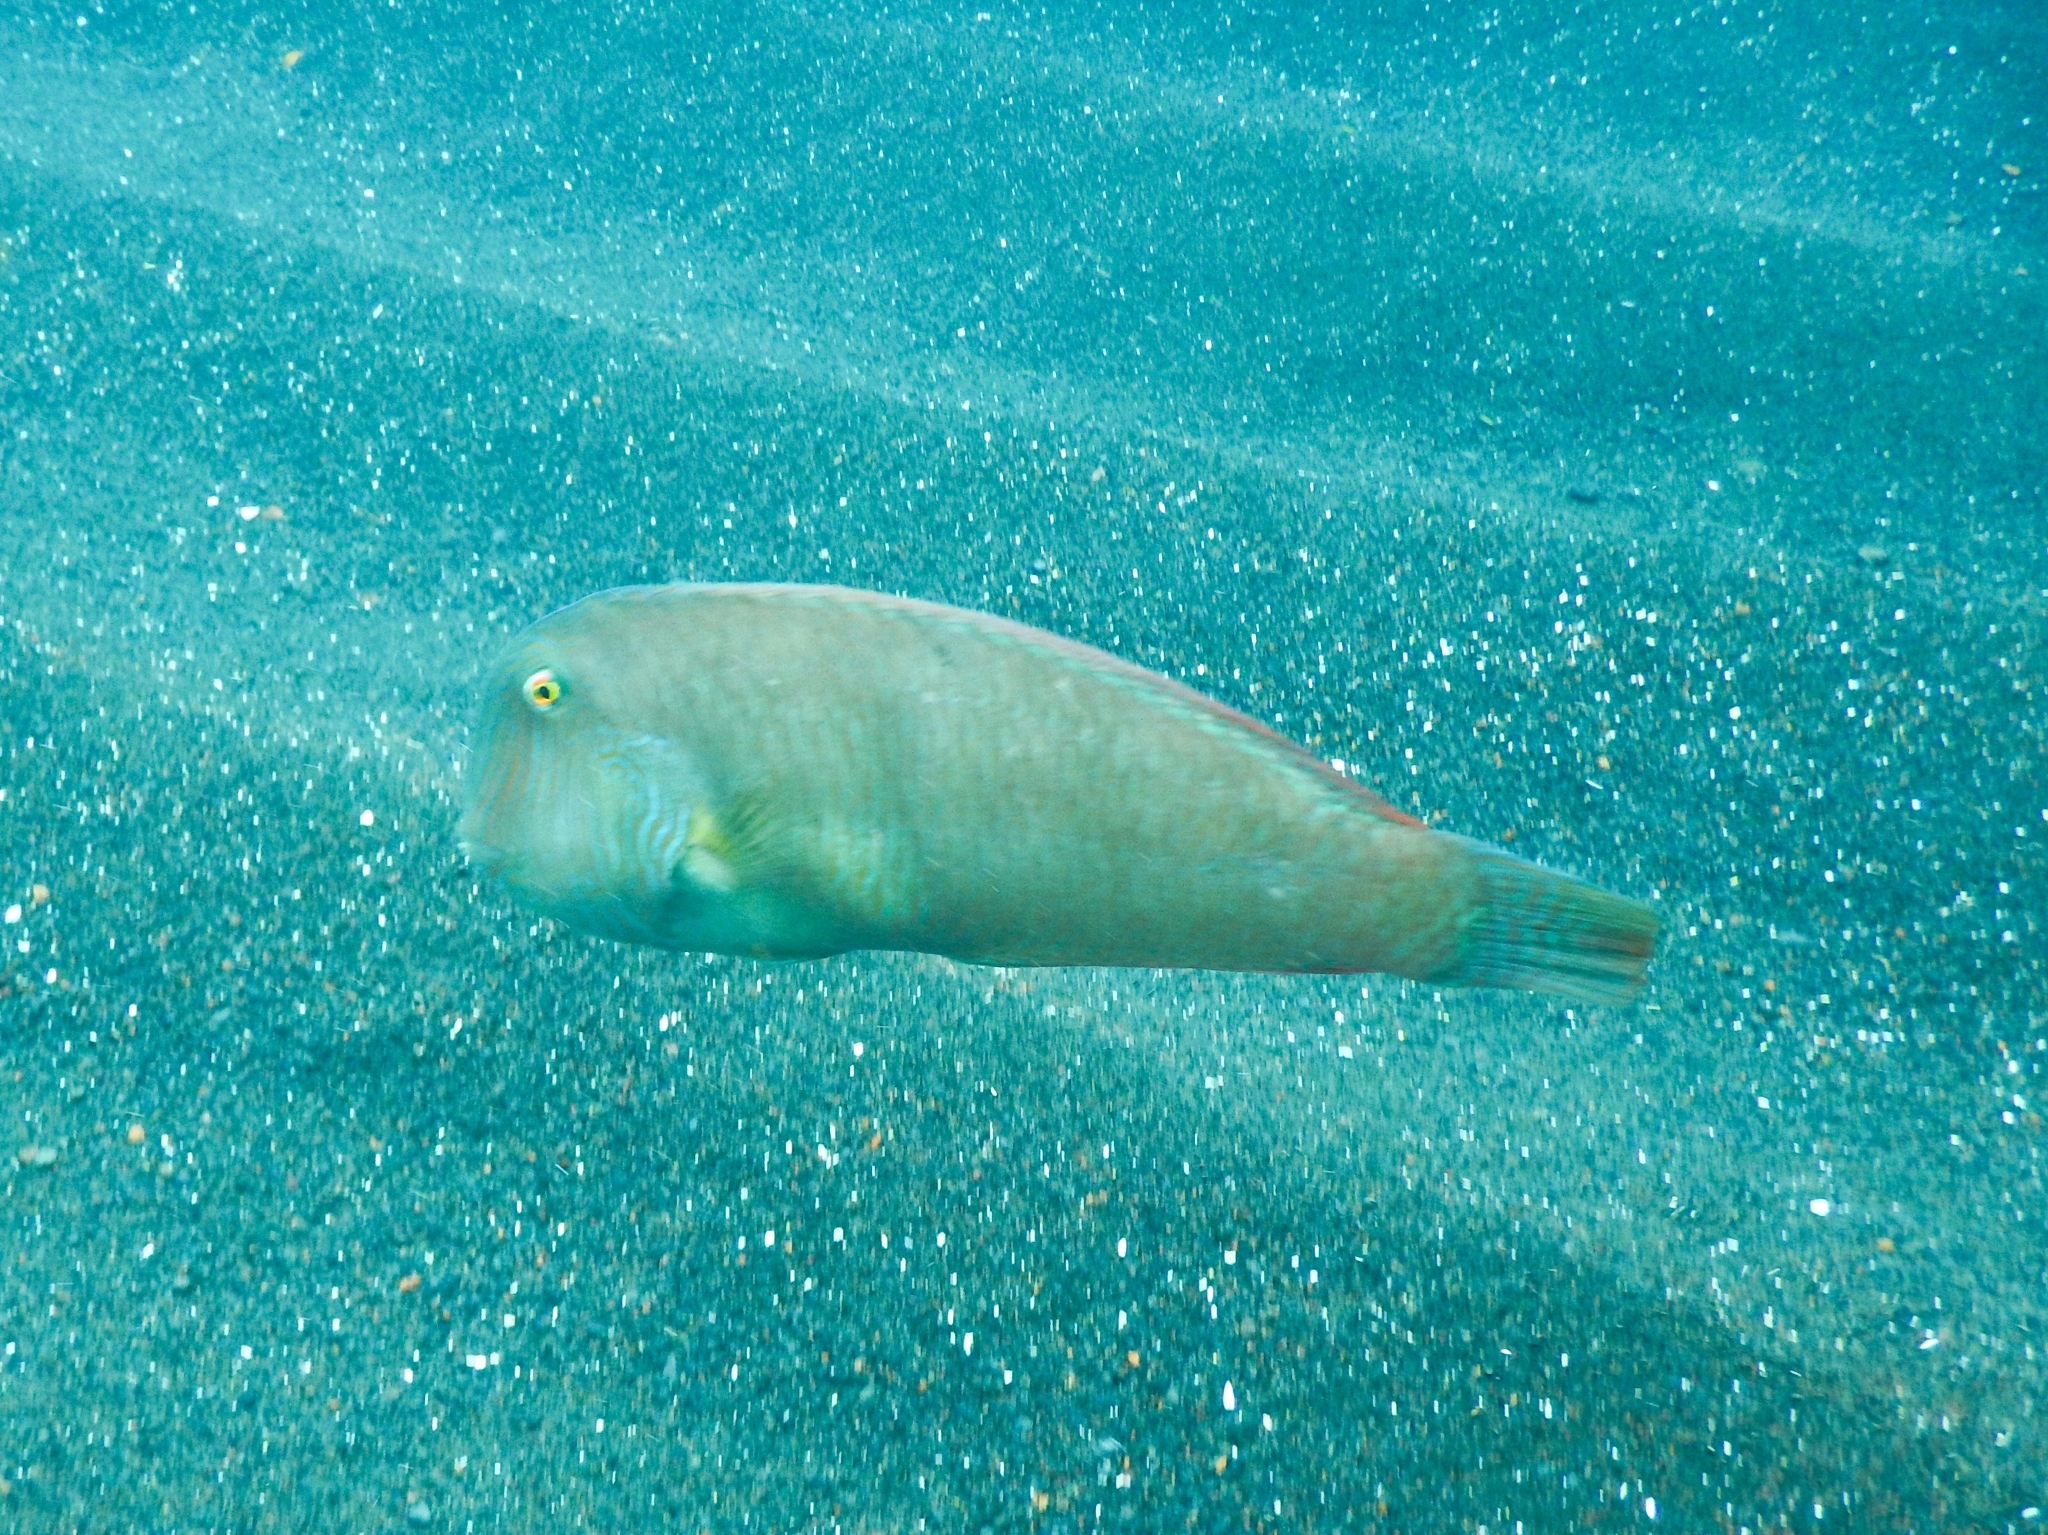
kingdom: Animalia
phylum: Chordata
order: Perciformes
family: Labridae
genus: Xyrichtys
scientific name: Xyrichtys novacula
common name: Pearly razorfish
